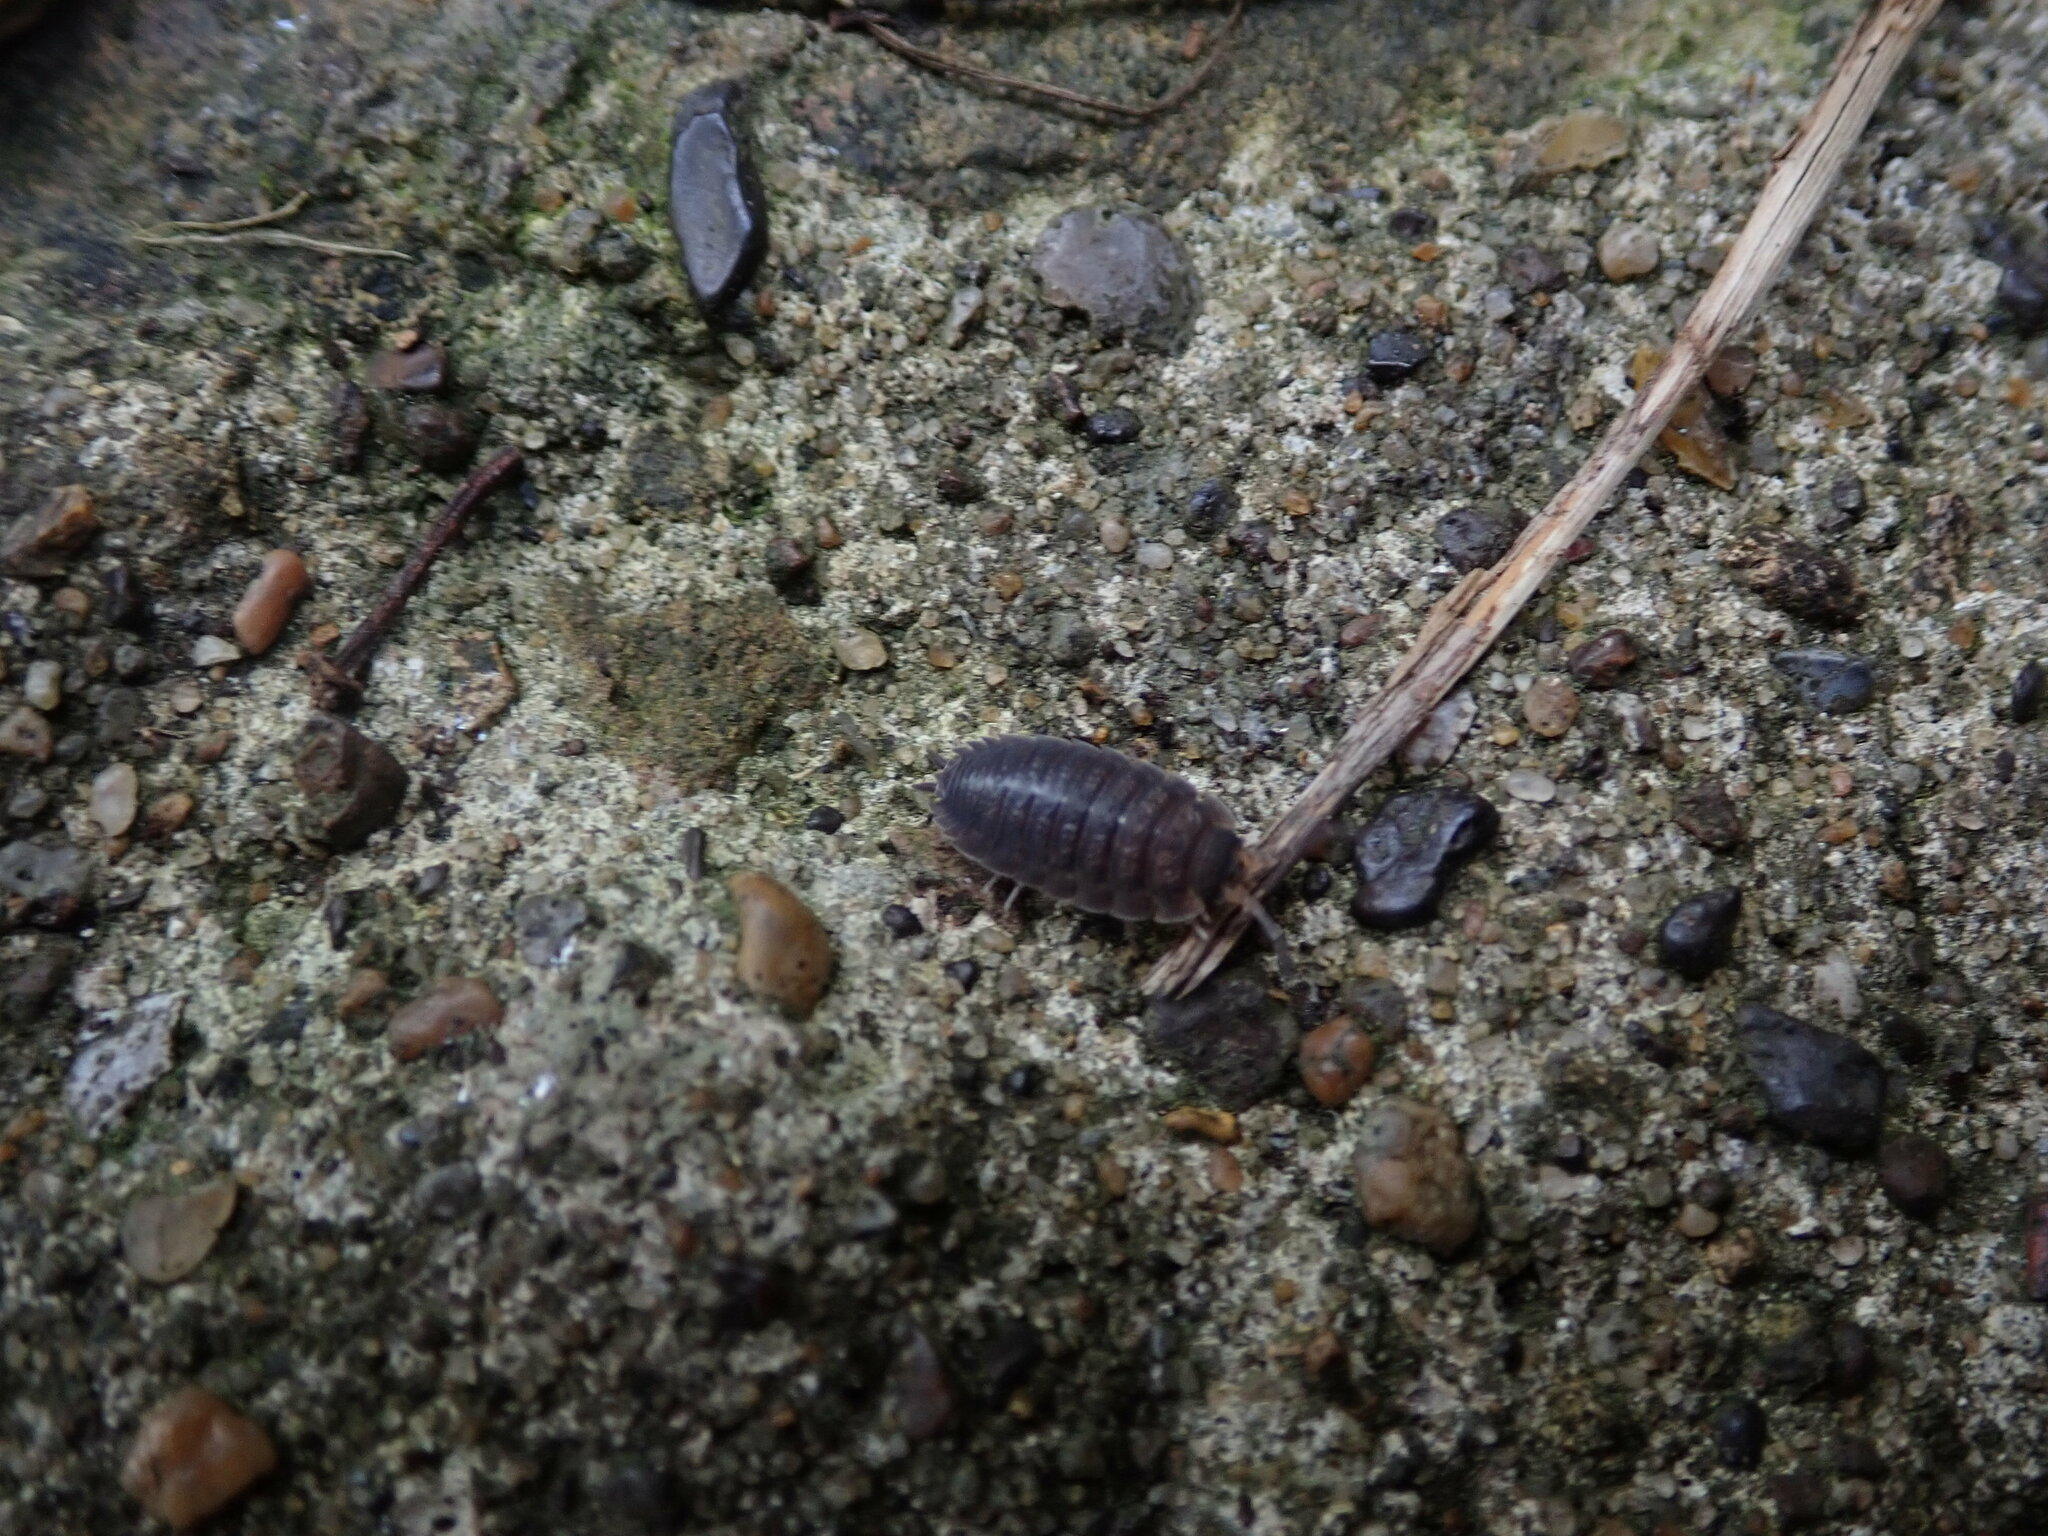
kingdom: Animalia
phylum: Arthropoda
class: Malacostraca
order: Isopoda
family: Porcellionidae
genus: Porcellio
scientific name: Porcellio scaber
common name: Common rough woodlouse
